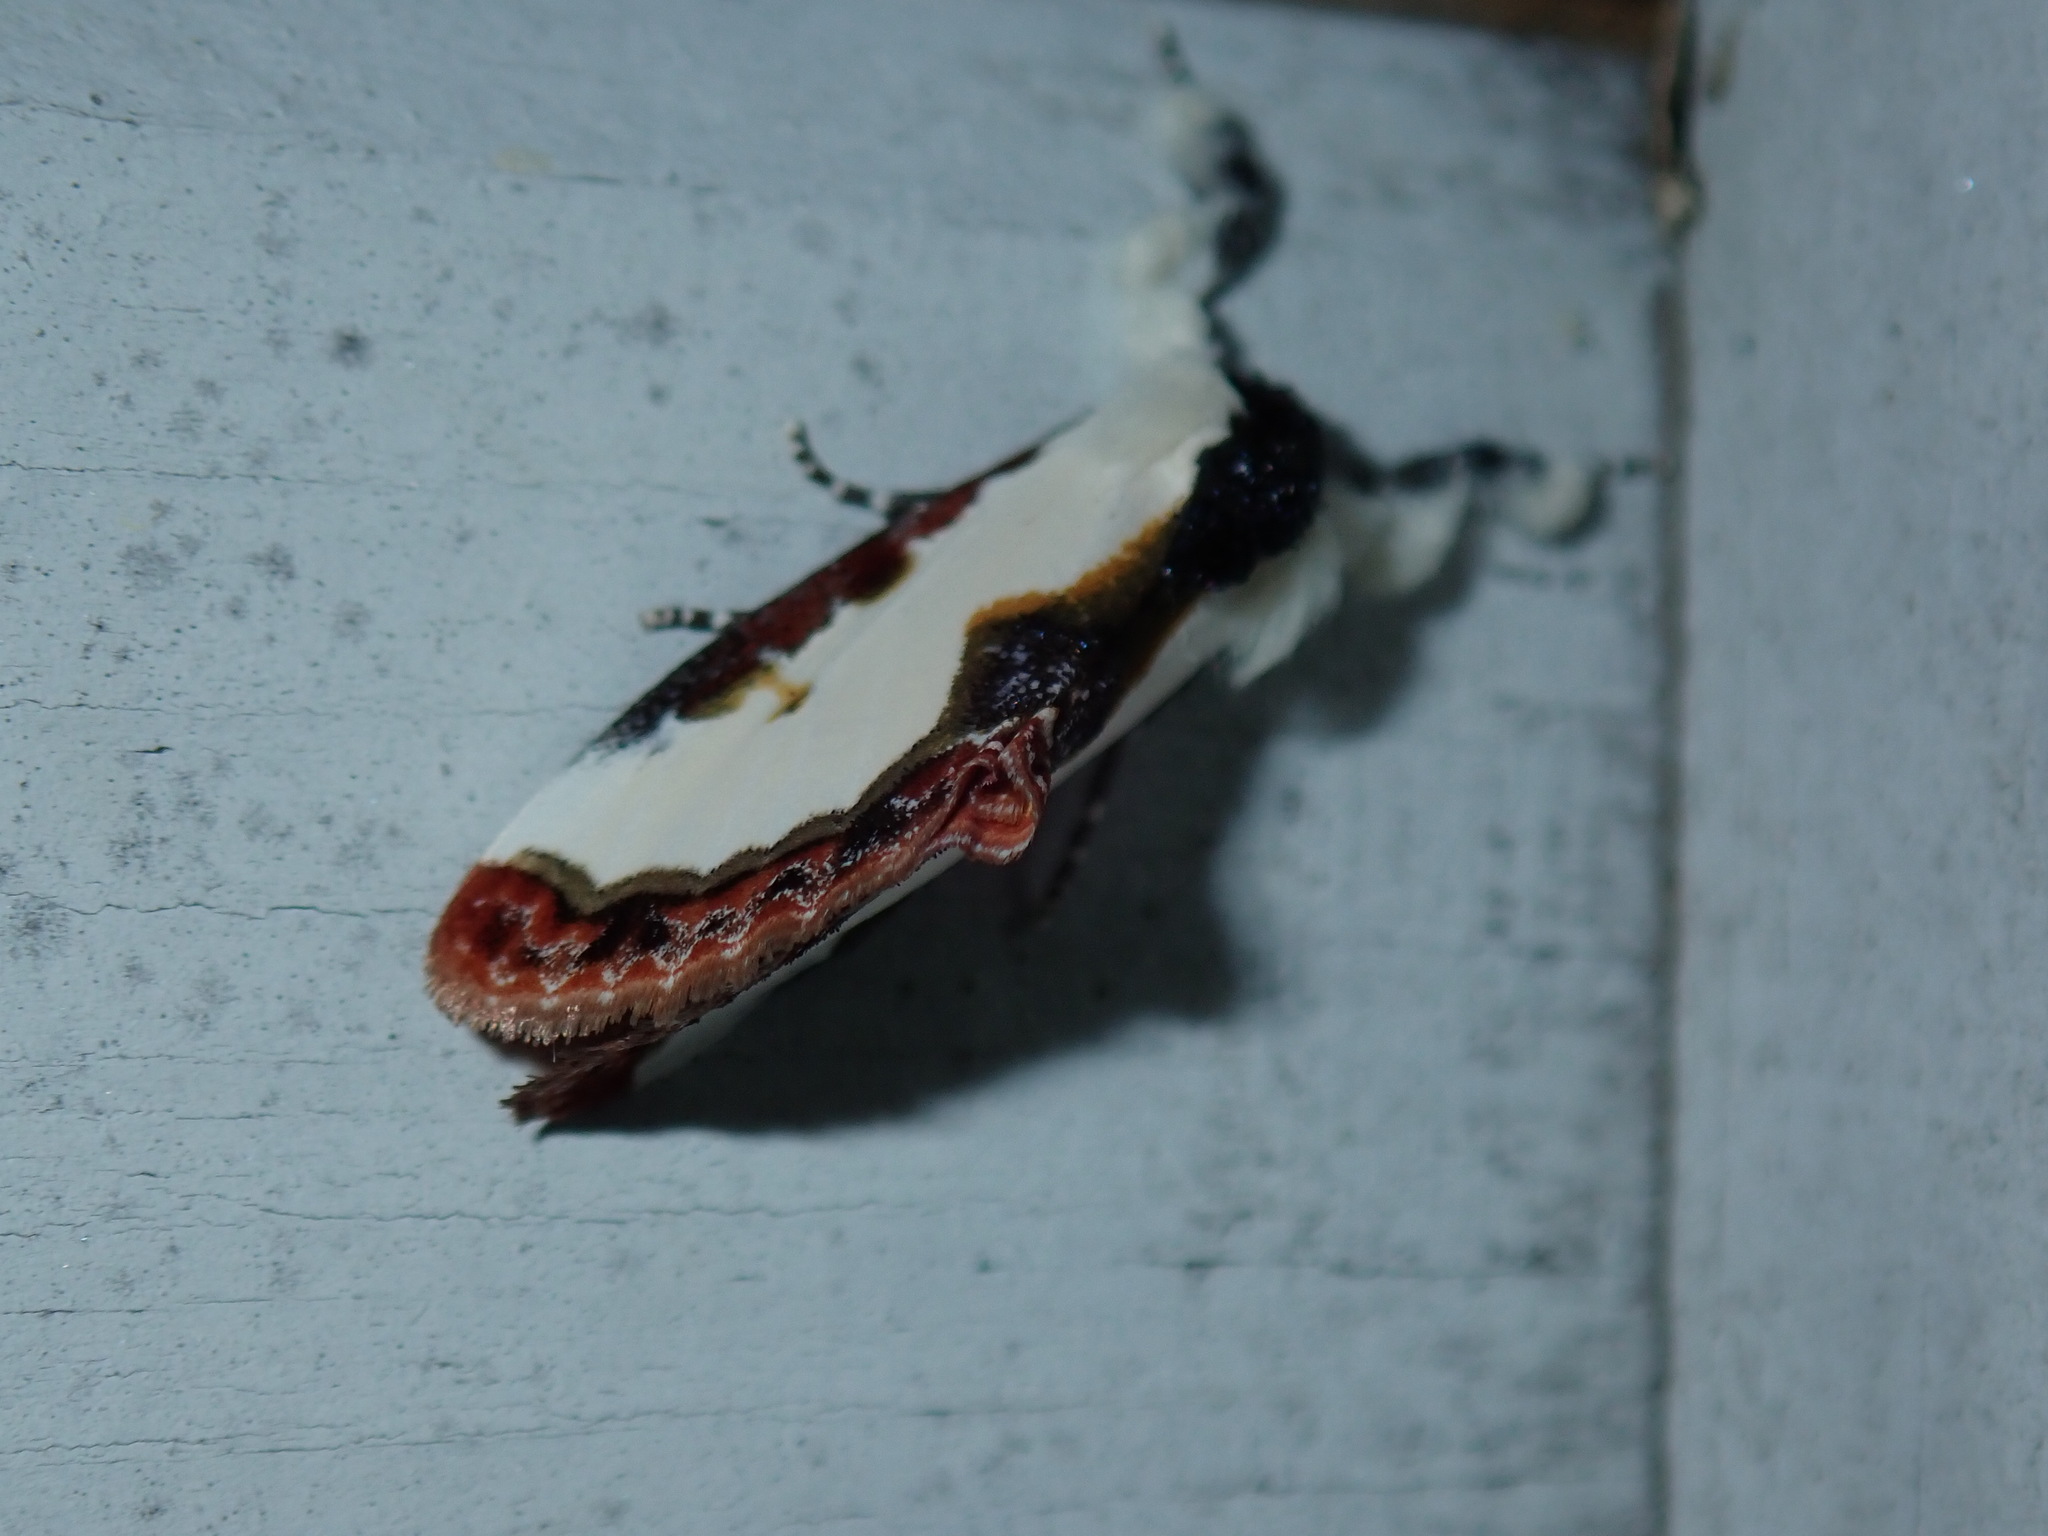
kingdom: Animalia
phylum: Arthropoda
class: Insecta
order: Lepidoptera
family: Noctuidae
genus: Eudryas
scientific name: Eudryas unio
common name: Pearly wood-nymph
